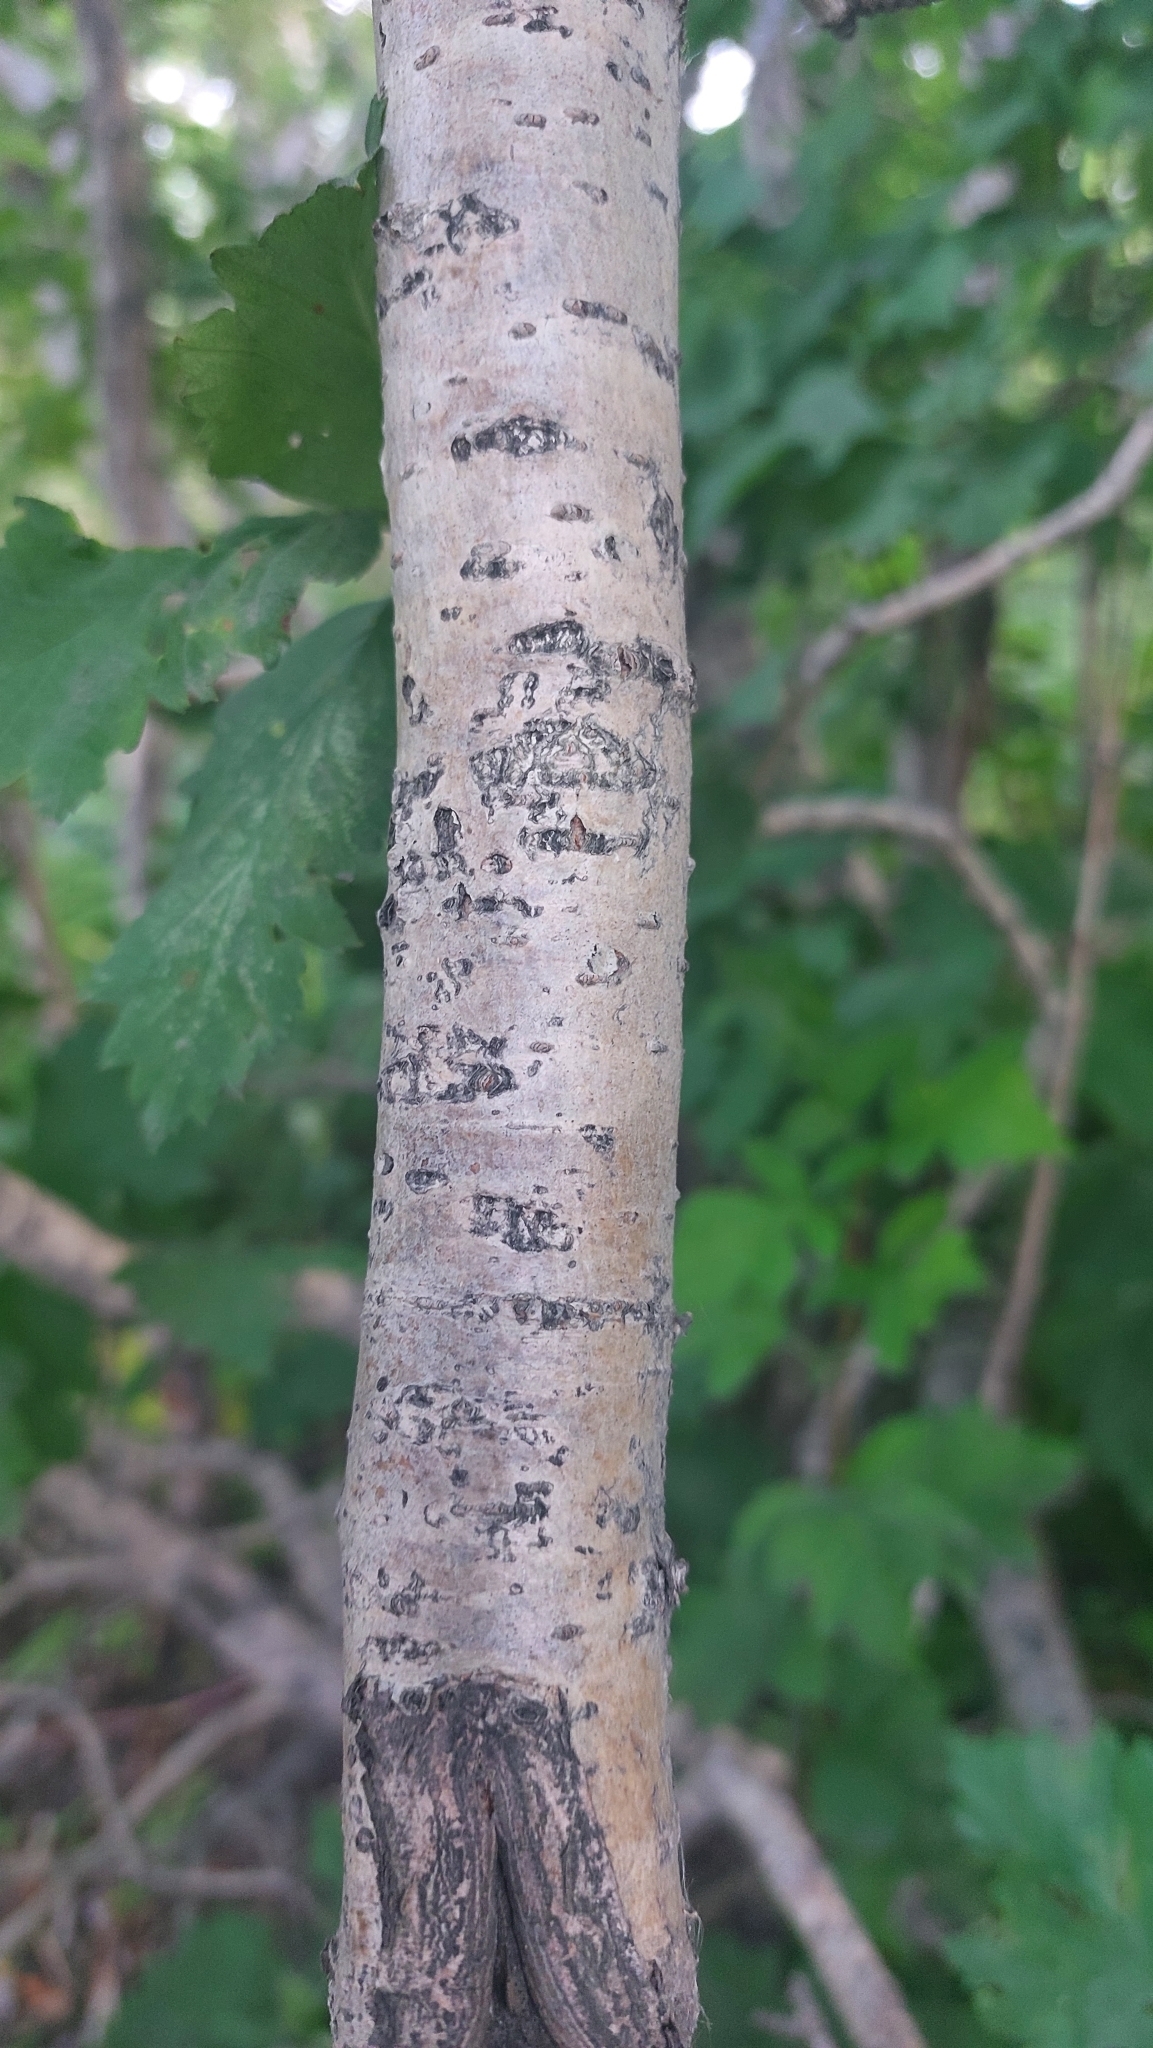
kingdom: Plantae
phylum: Tracheophyta
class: Magnoliopsida
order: Rosales
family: Rosaceae
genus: Crataegus
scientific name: Crataegus chlorosarca
